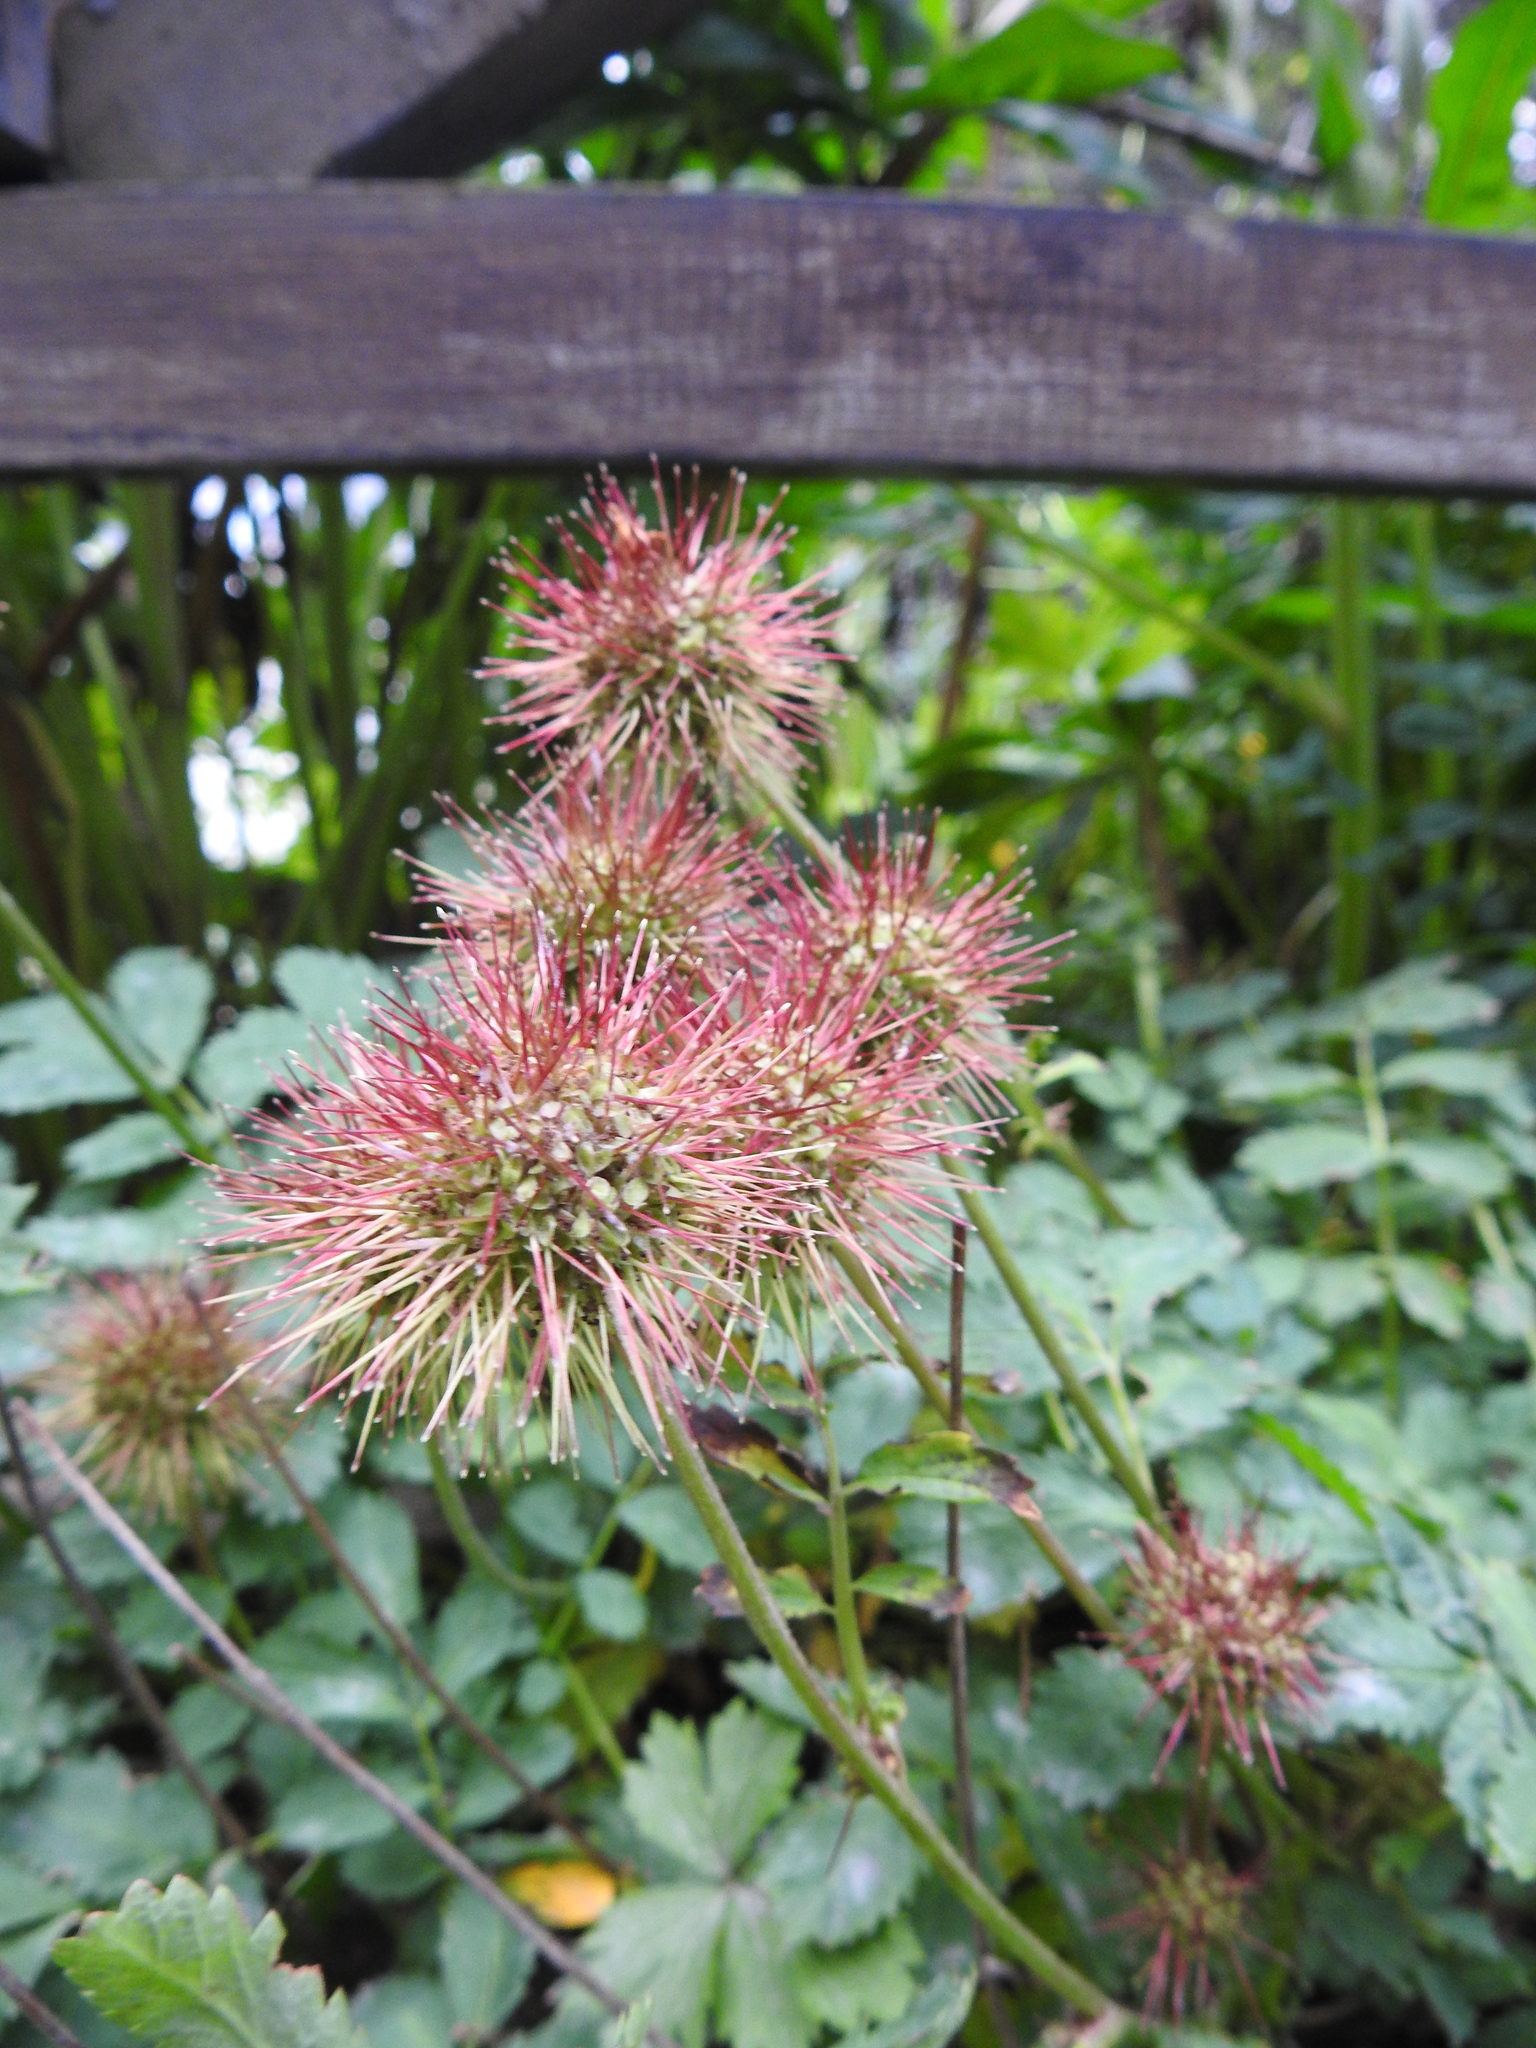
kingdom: Plantae
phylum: Tracheophyta
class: Magnoliopsida
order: Rosales
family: Rosaceae
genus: Acaena
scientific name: Acaena ovalifolia
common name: Two-spined acaena
